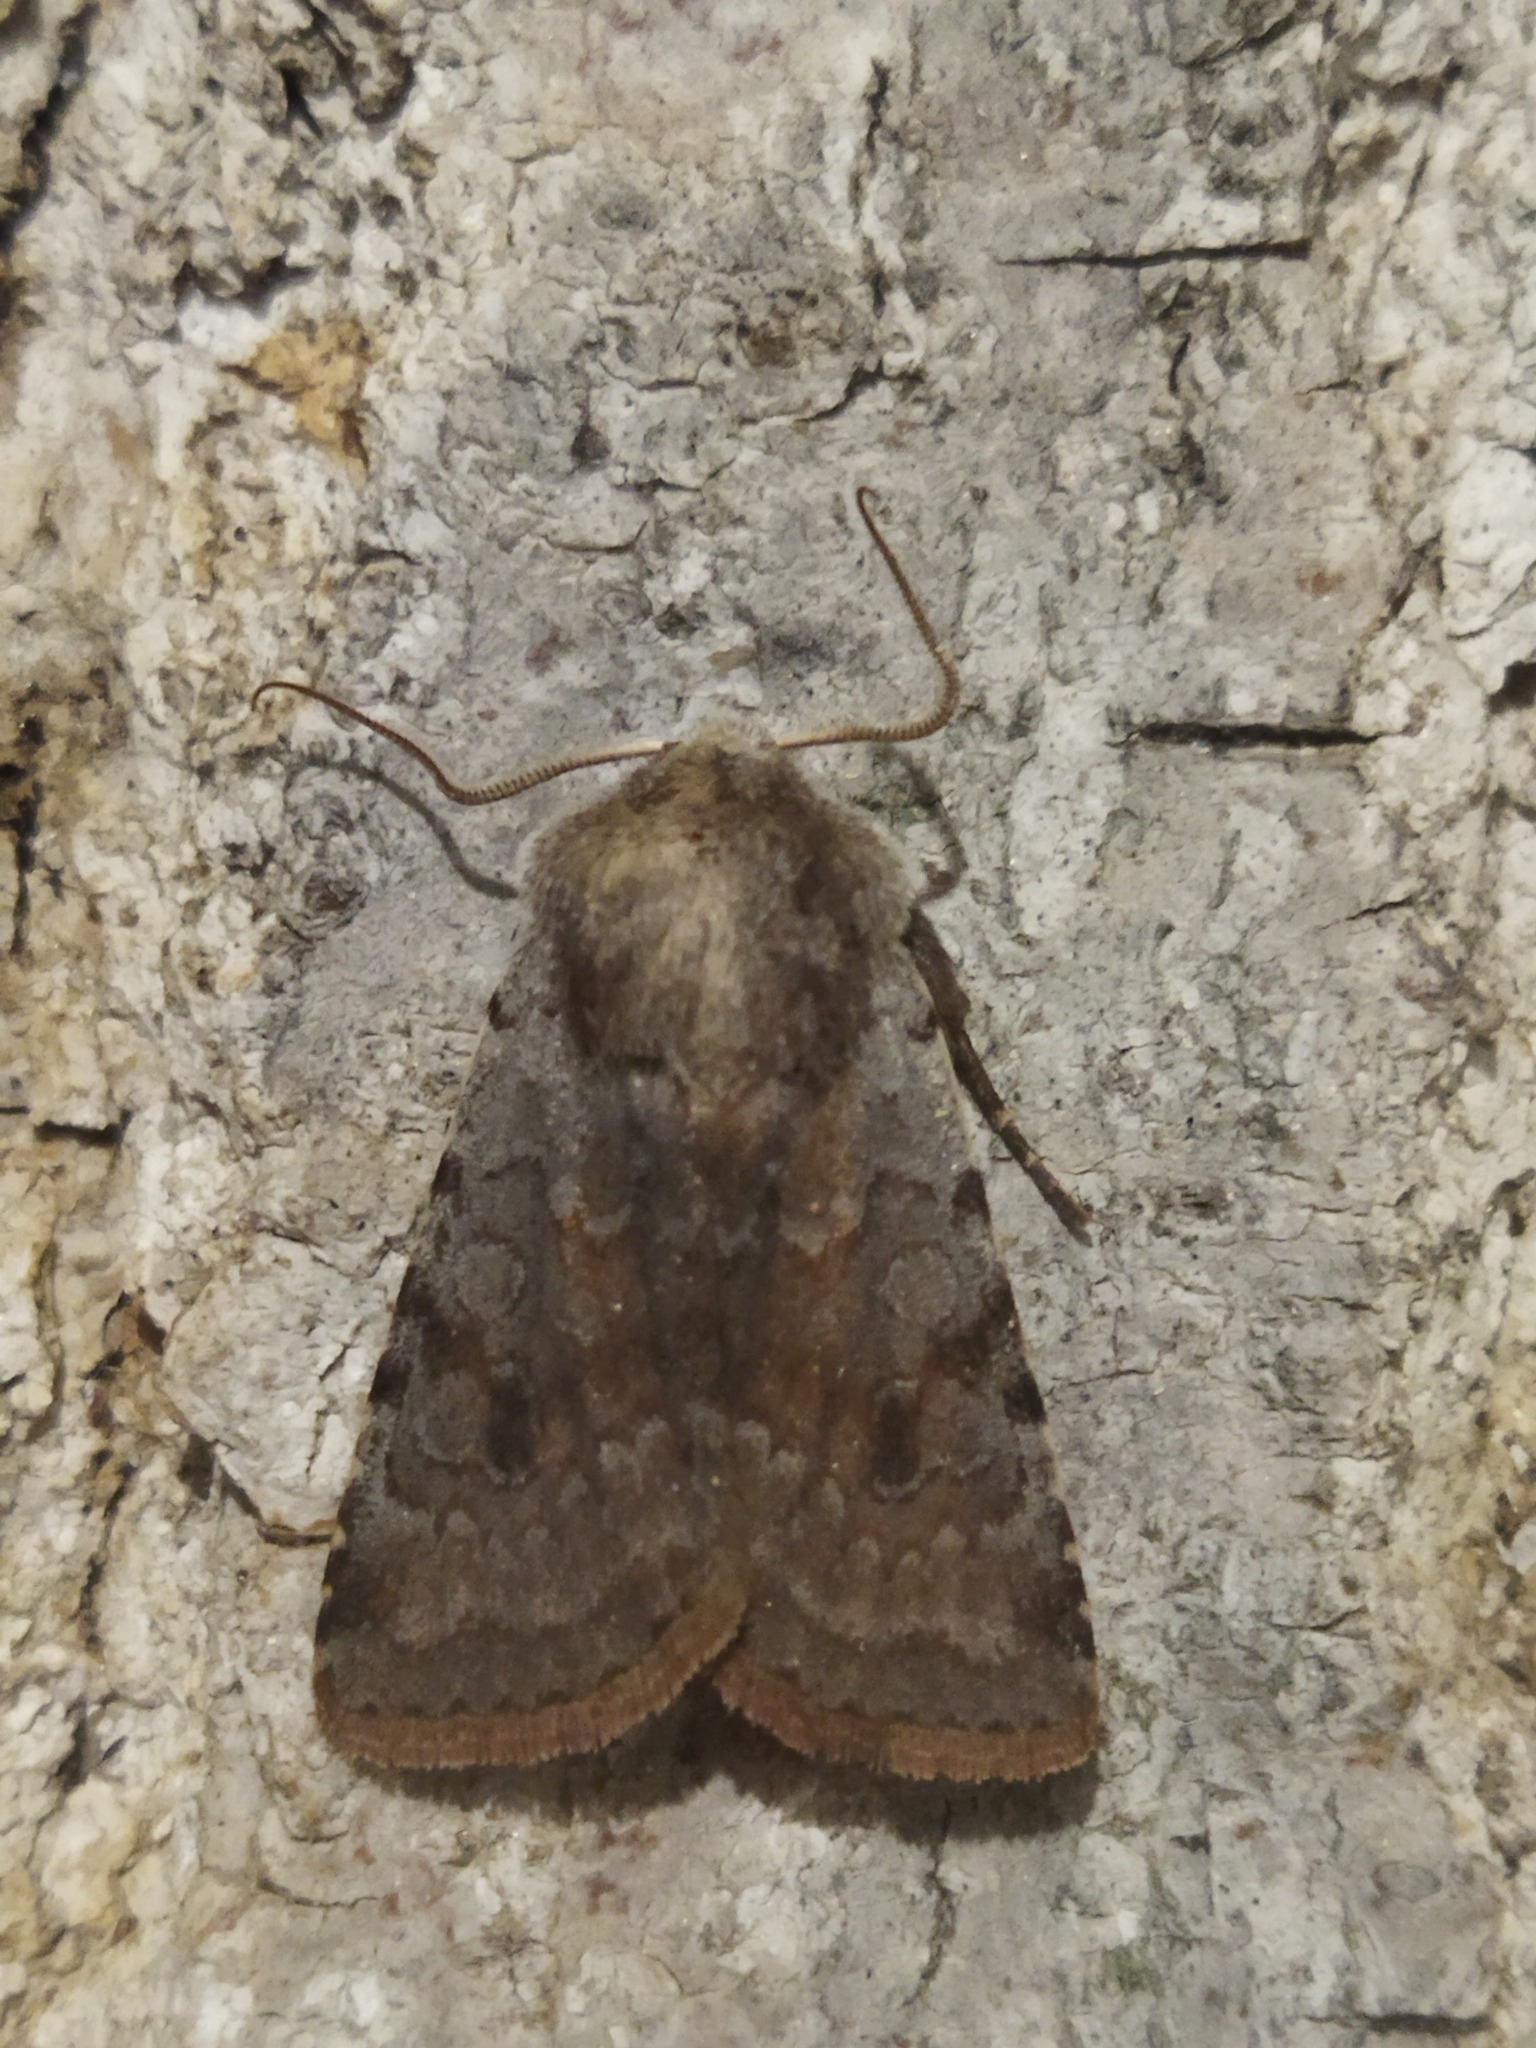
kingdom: Animalia
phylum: Arthropoda
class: Insecta
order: Lepidoptera
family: Noctuidae
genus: Cerastis
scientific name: Cerastis rubricosa
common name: Red chestnut
